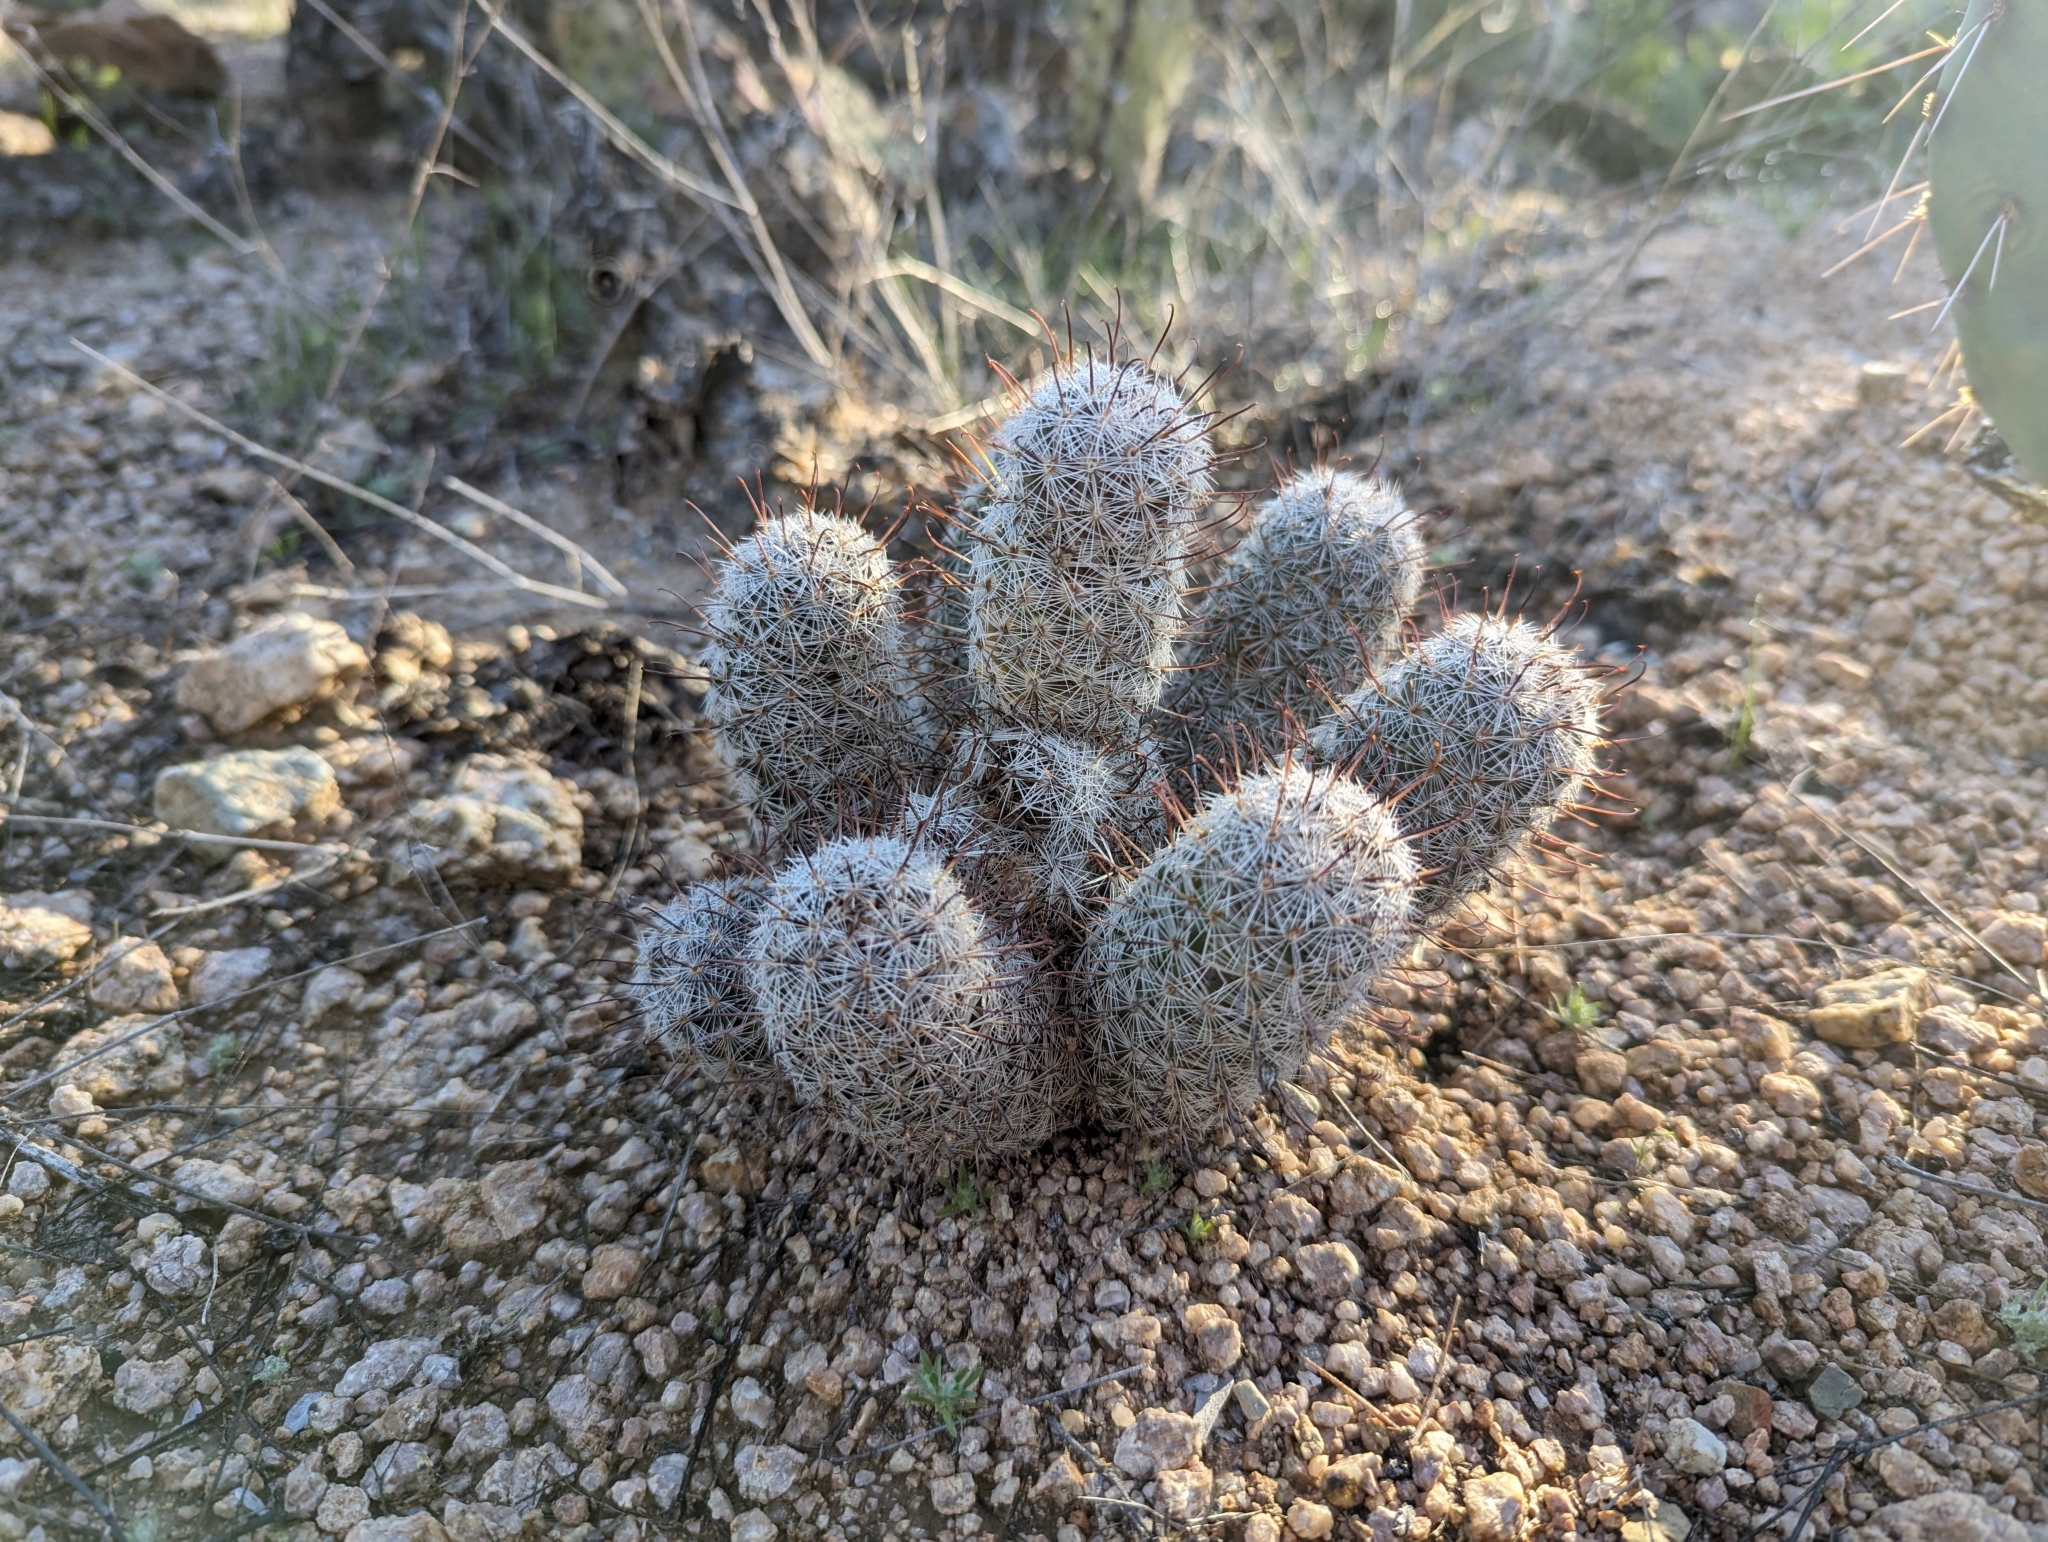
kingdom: Plantae
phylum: Tracheophyta
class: Magnoliopsida
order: Caryophyllales
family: Cactaceae
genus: Cochemiea
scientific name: Cochemiea grahamii
